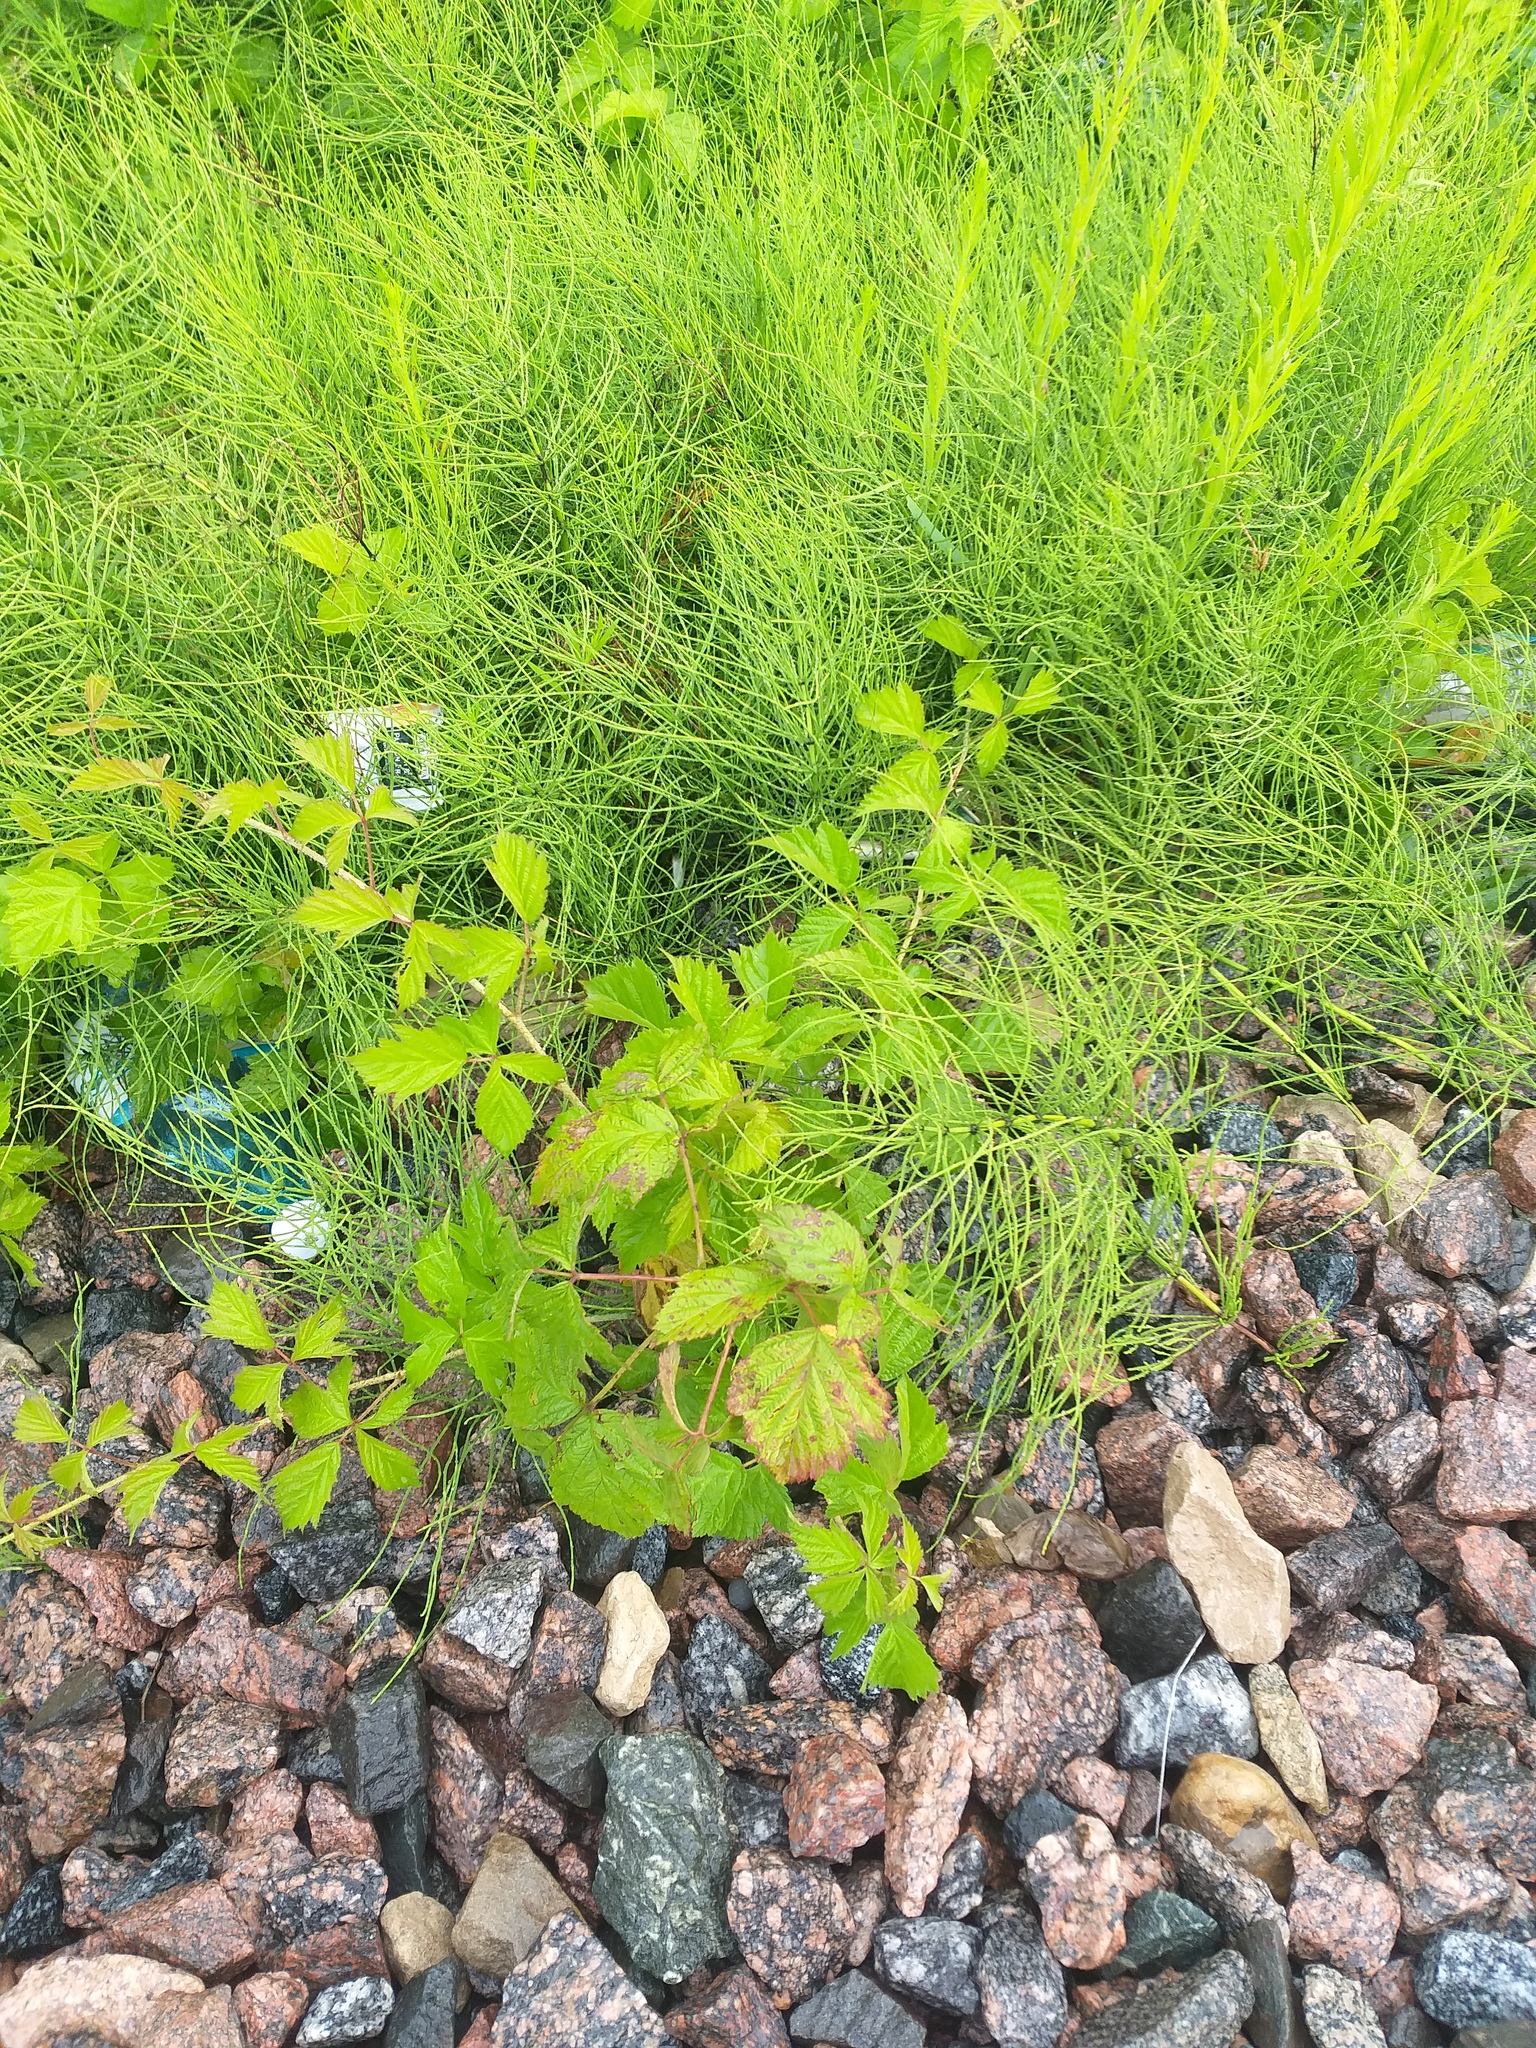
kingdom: Plantae
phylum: Tracheophyta
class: Magnoliopsida
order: Rosales
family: Rosaceae
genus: Rubus
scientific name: Rubus caesius
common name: Dewberry
